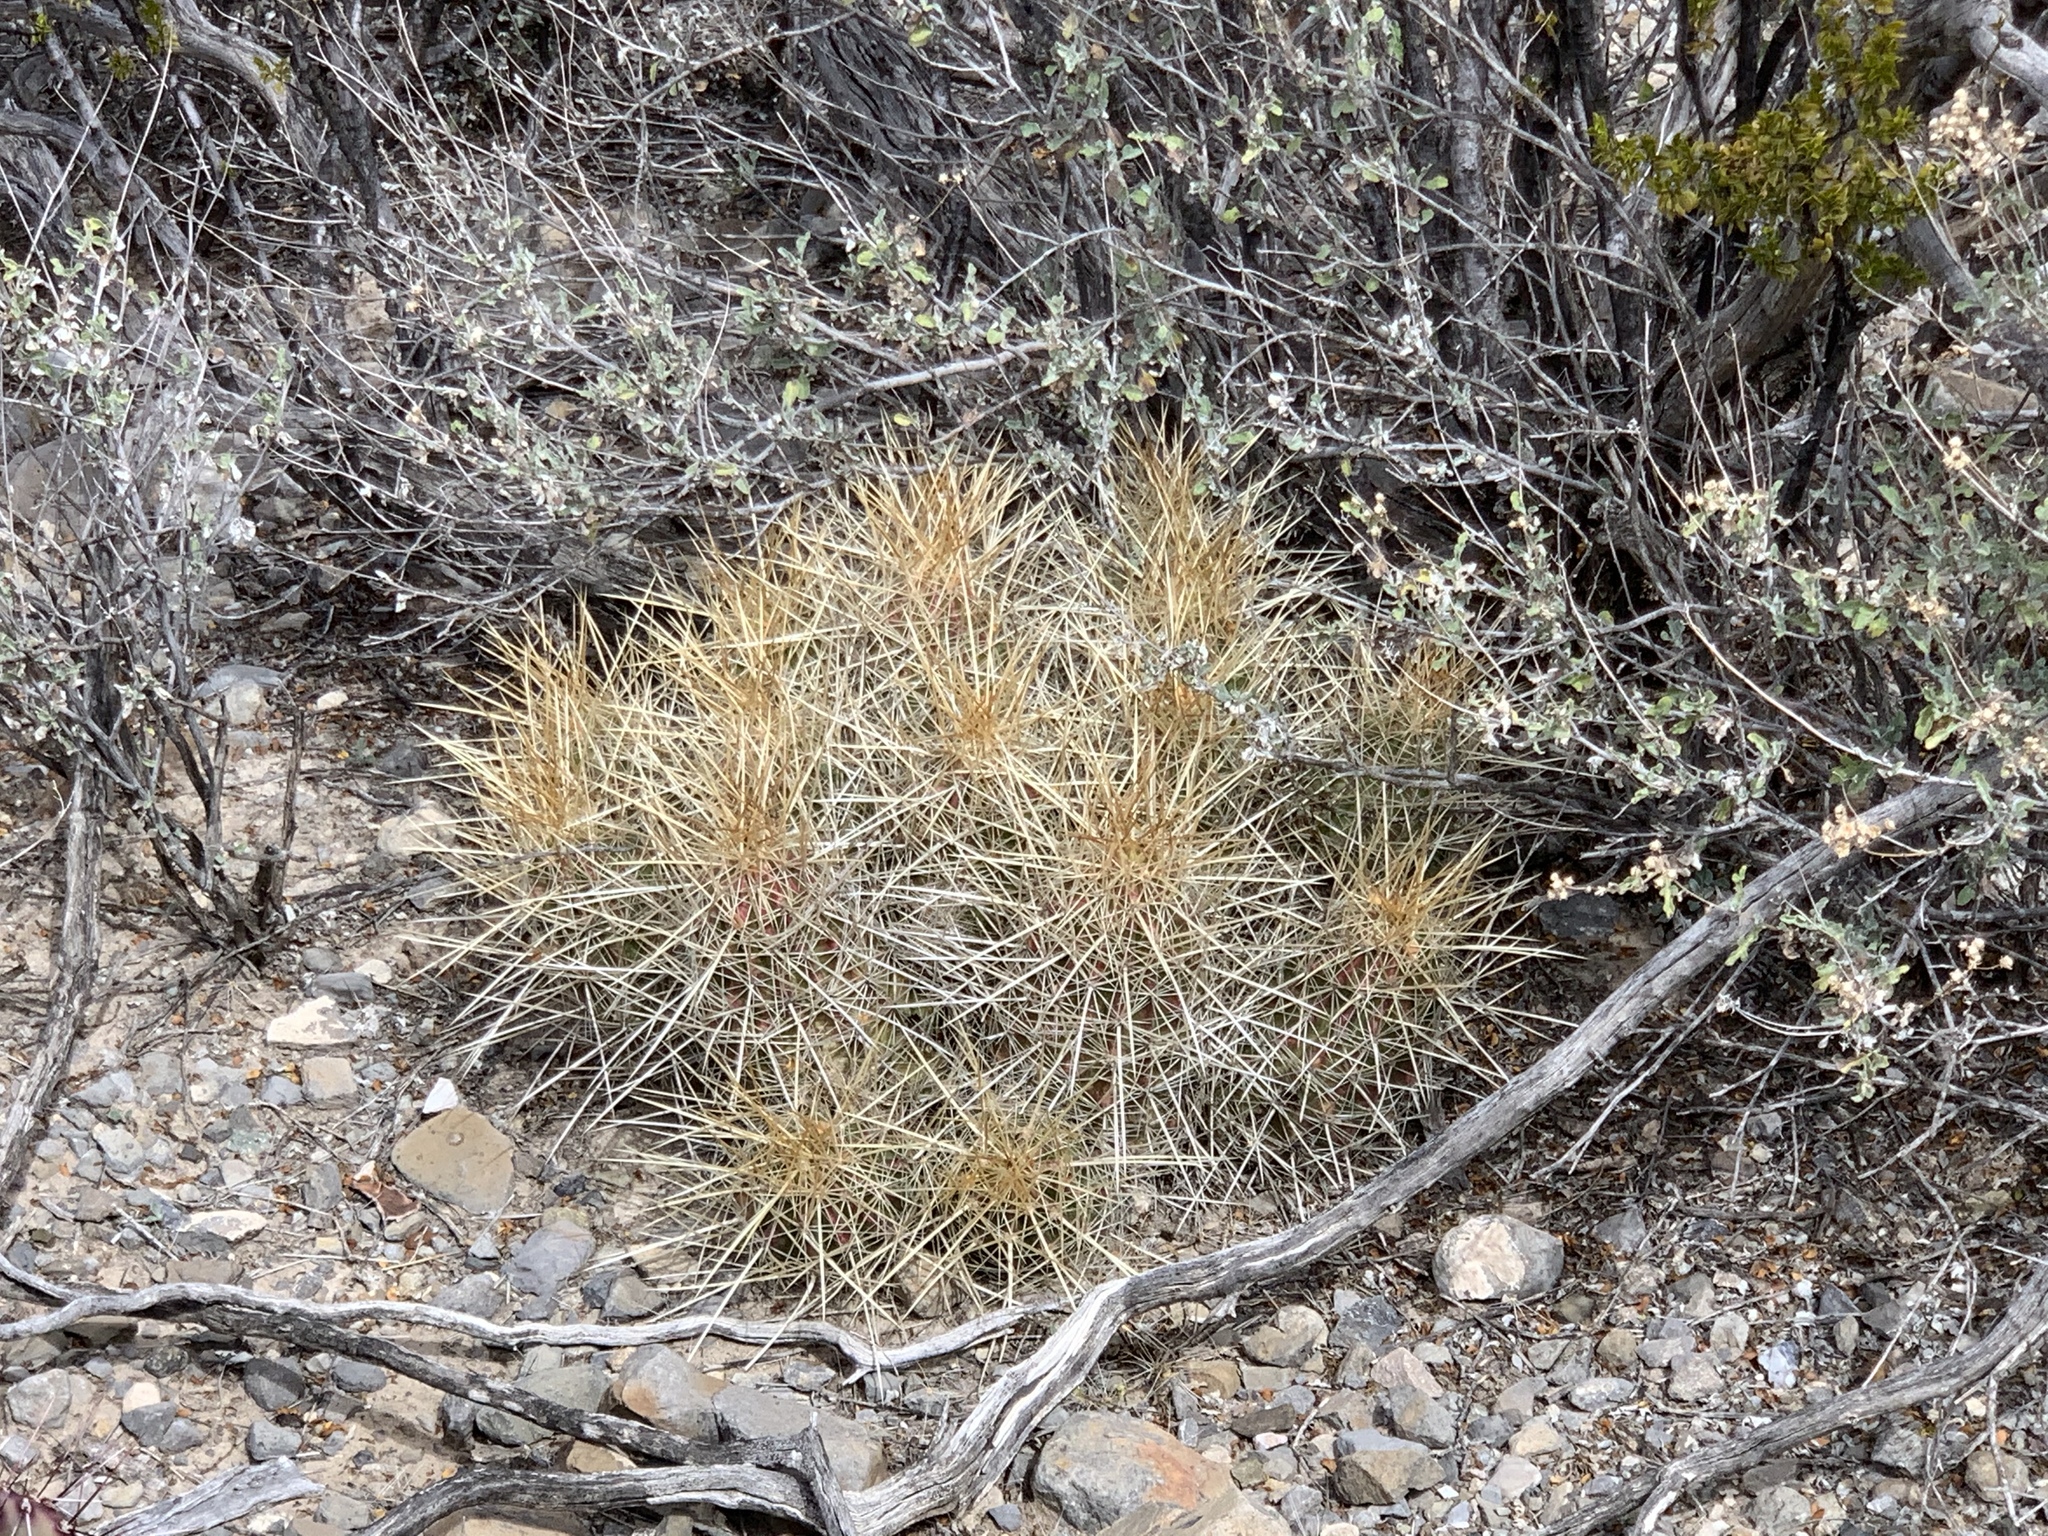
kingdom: Plantae
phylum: Tracheophyta
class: Magnoliopsida
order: Caryophyllales
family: Cactaceae
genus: Echinocereus
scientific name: Echinocereus stramineus
